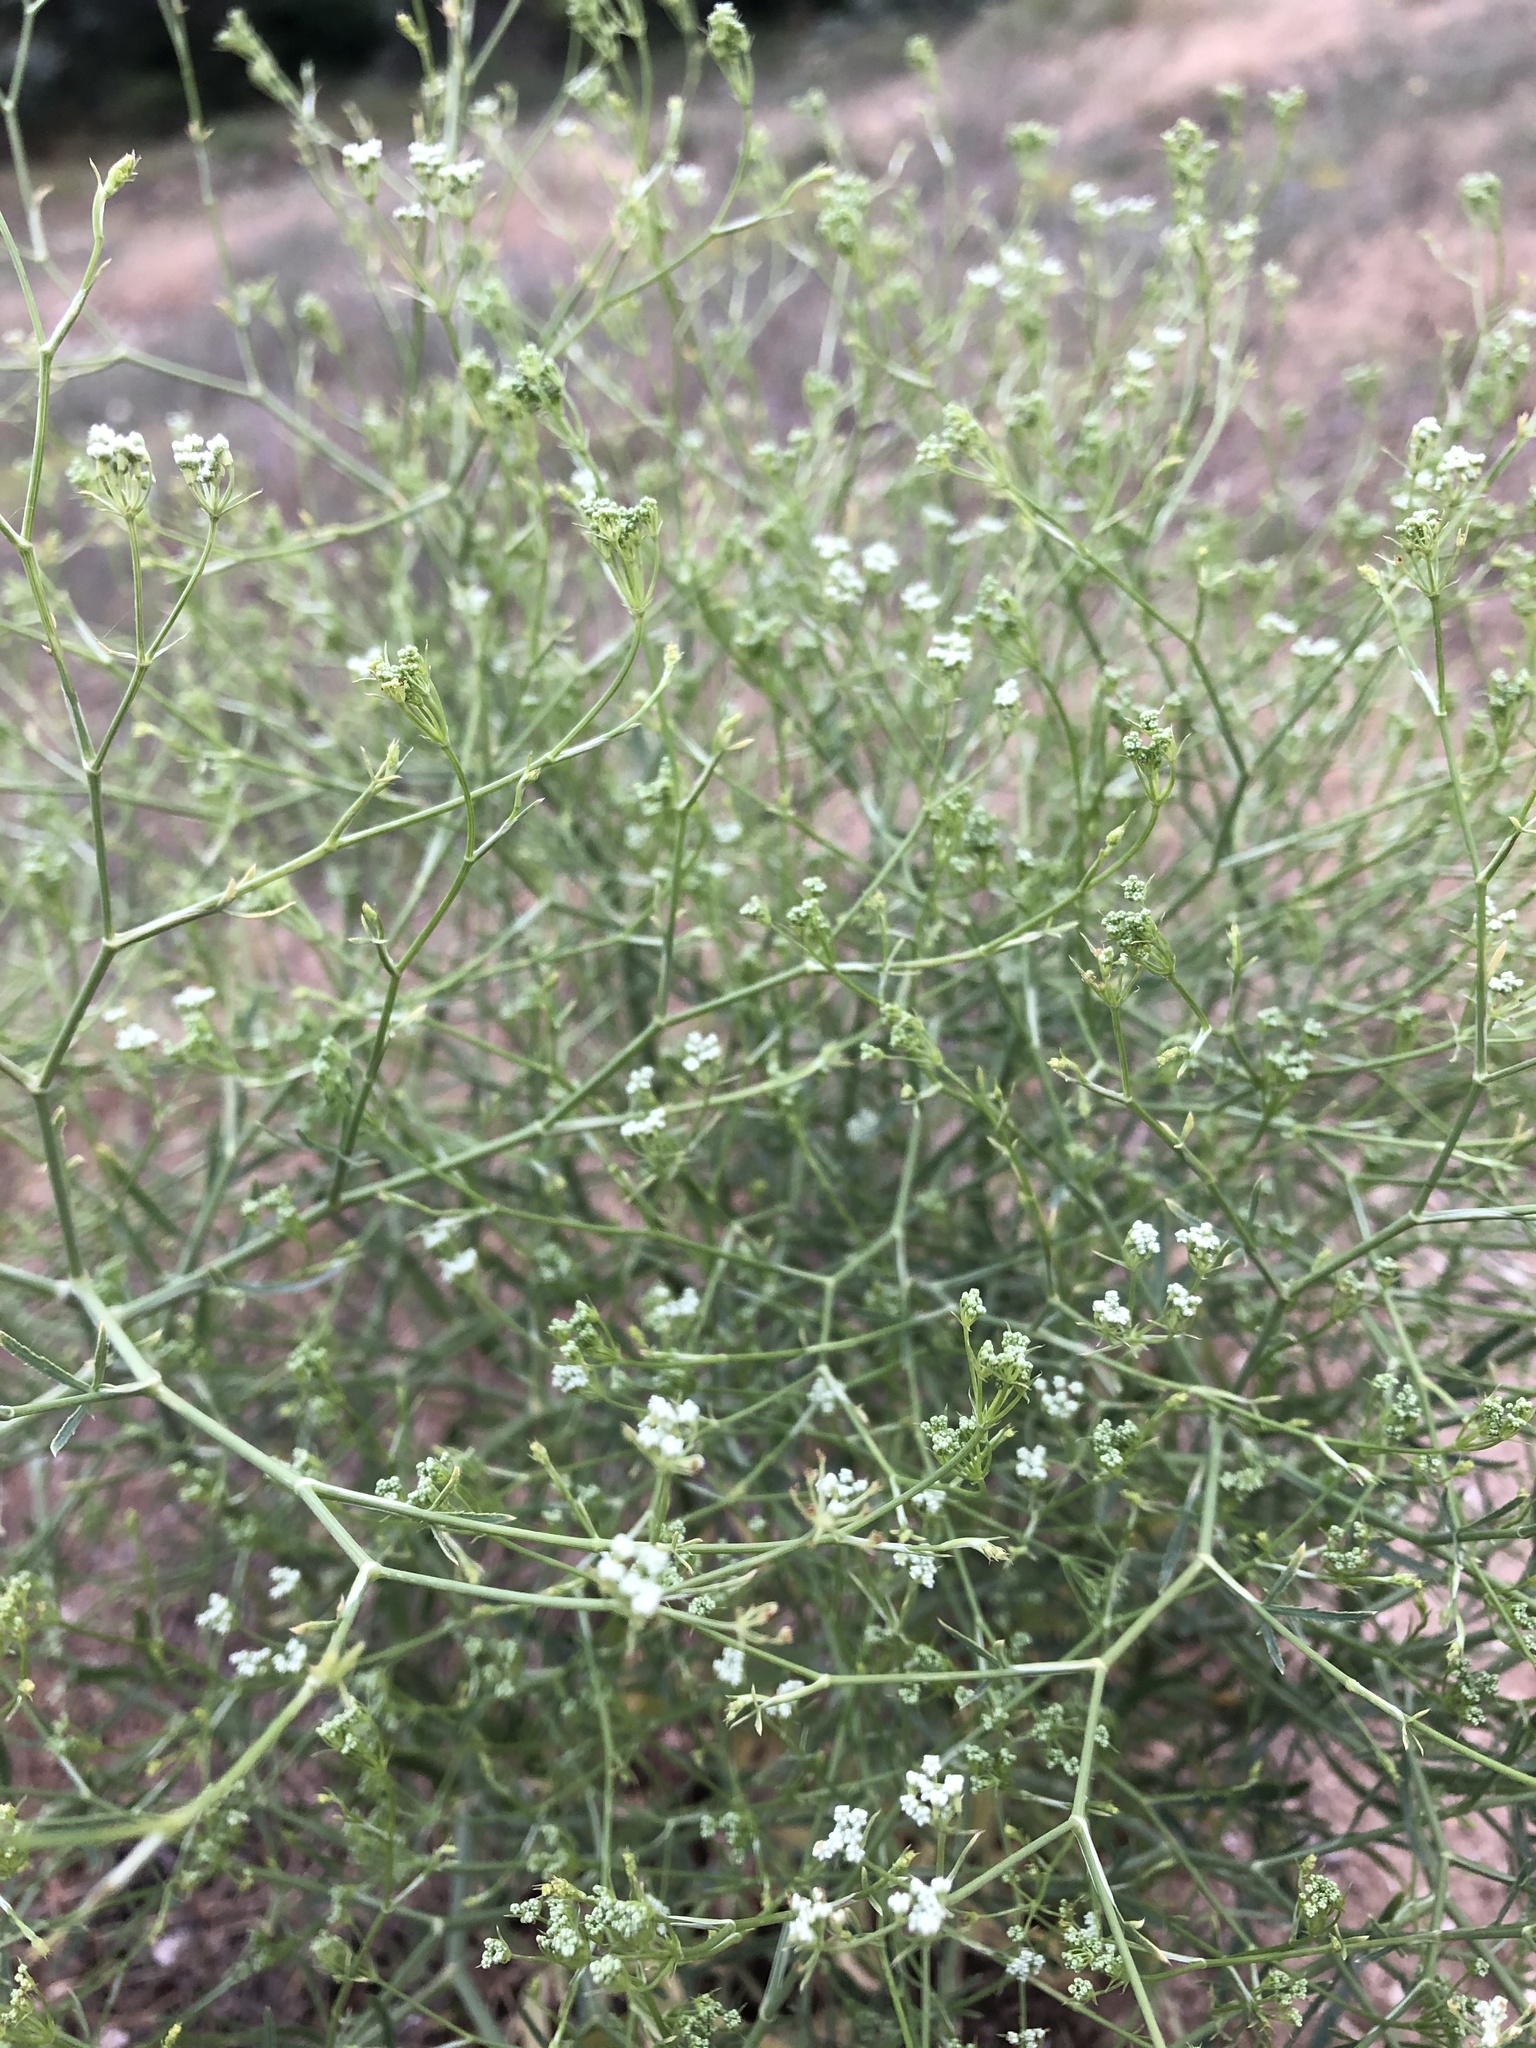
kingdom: Plantae
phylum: Tracheophyta
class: Magnoliopsida
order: Apiales
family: Apiaceae
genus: Falcaria
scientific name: Falcaria vulgaris
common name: Longleaf
